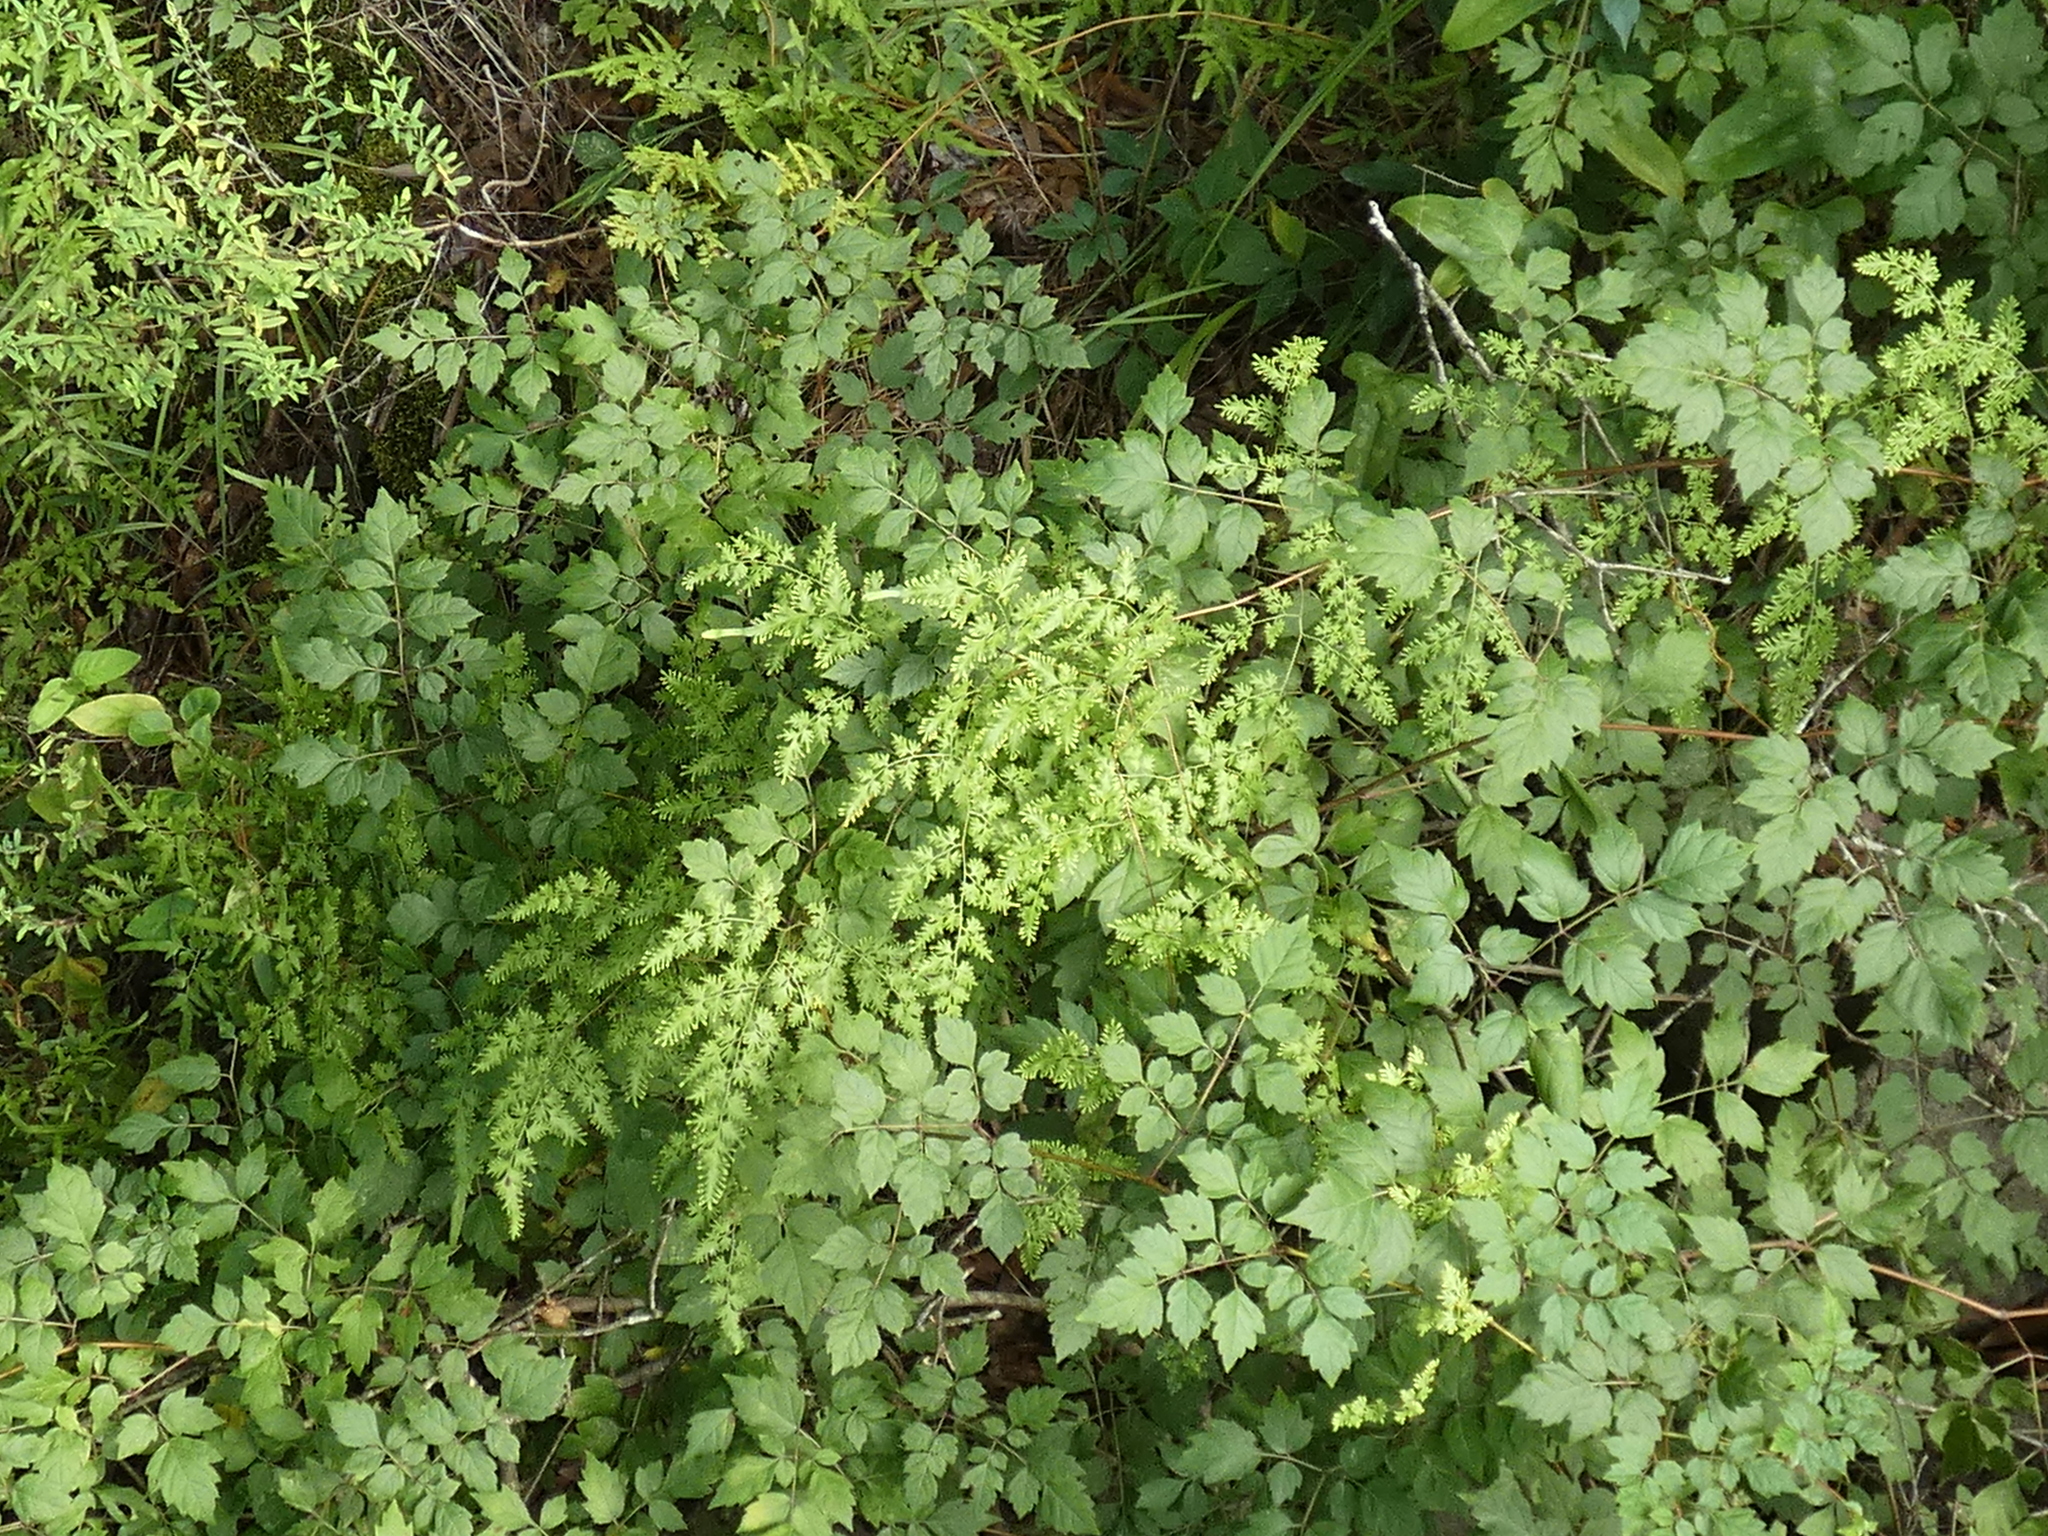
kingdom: Plantae
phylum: Tracheophyta
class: Polypodiopsida
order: Schizaeales
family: Lygodiaceae
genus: Lygodium
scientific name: Lygodium japonicum
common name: Japanese climbing fern
